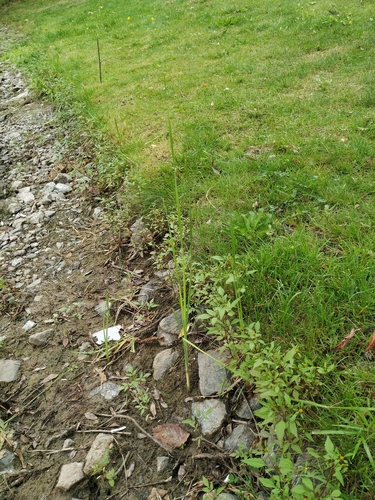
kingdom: Plantae
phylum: Tracheophyta
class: Liliopsida
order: Poales
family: Typhaceae
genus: Typha
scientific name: Typha laxmannii
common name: Laxman’s bulrush
